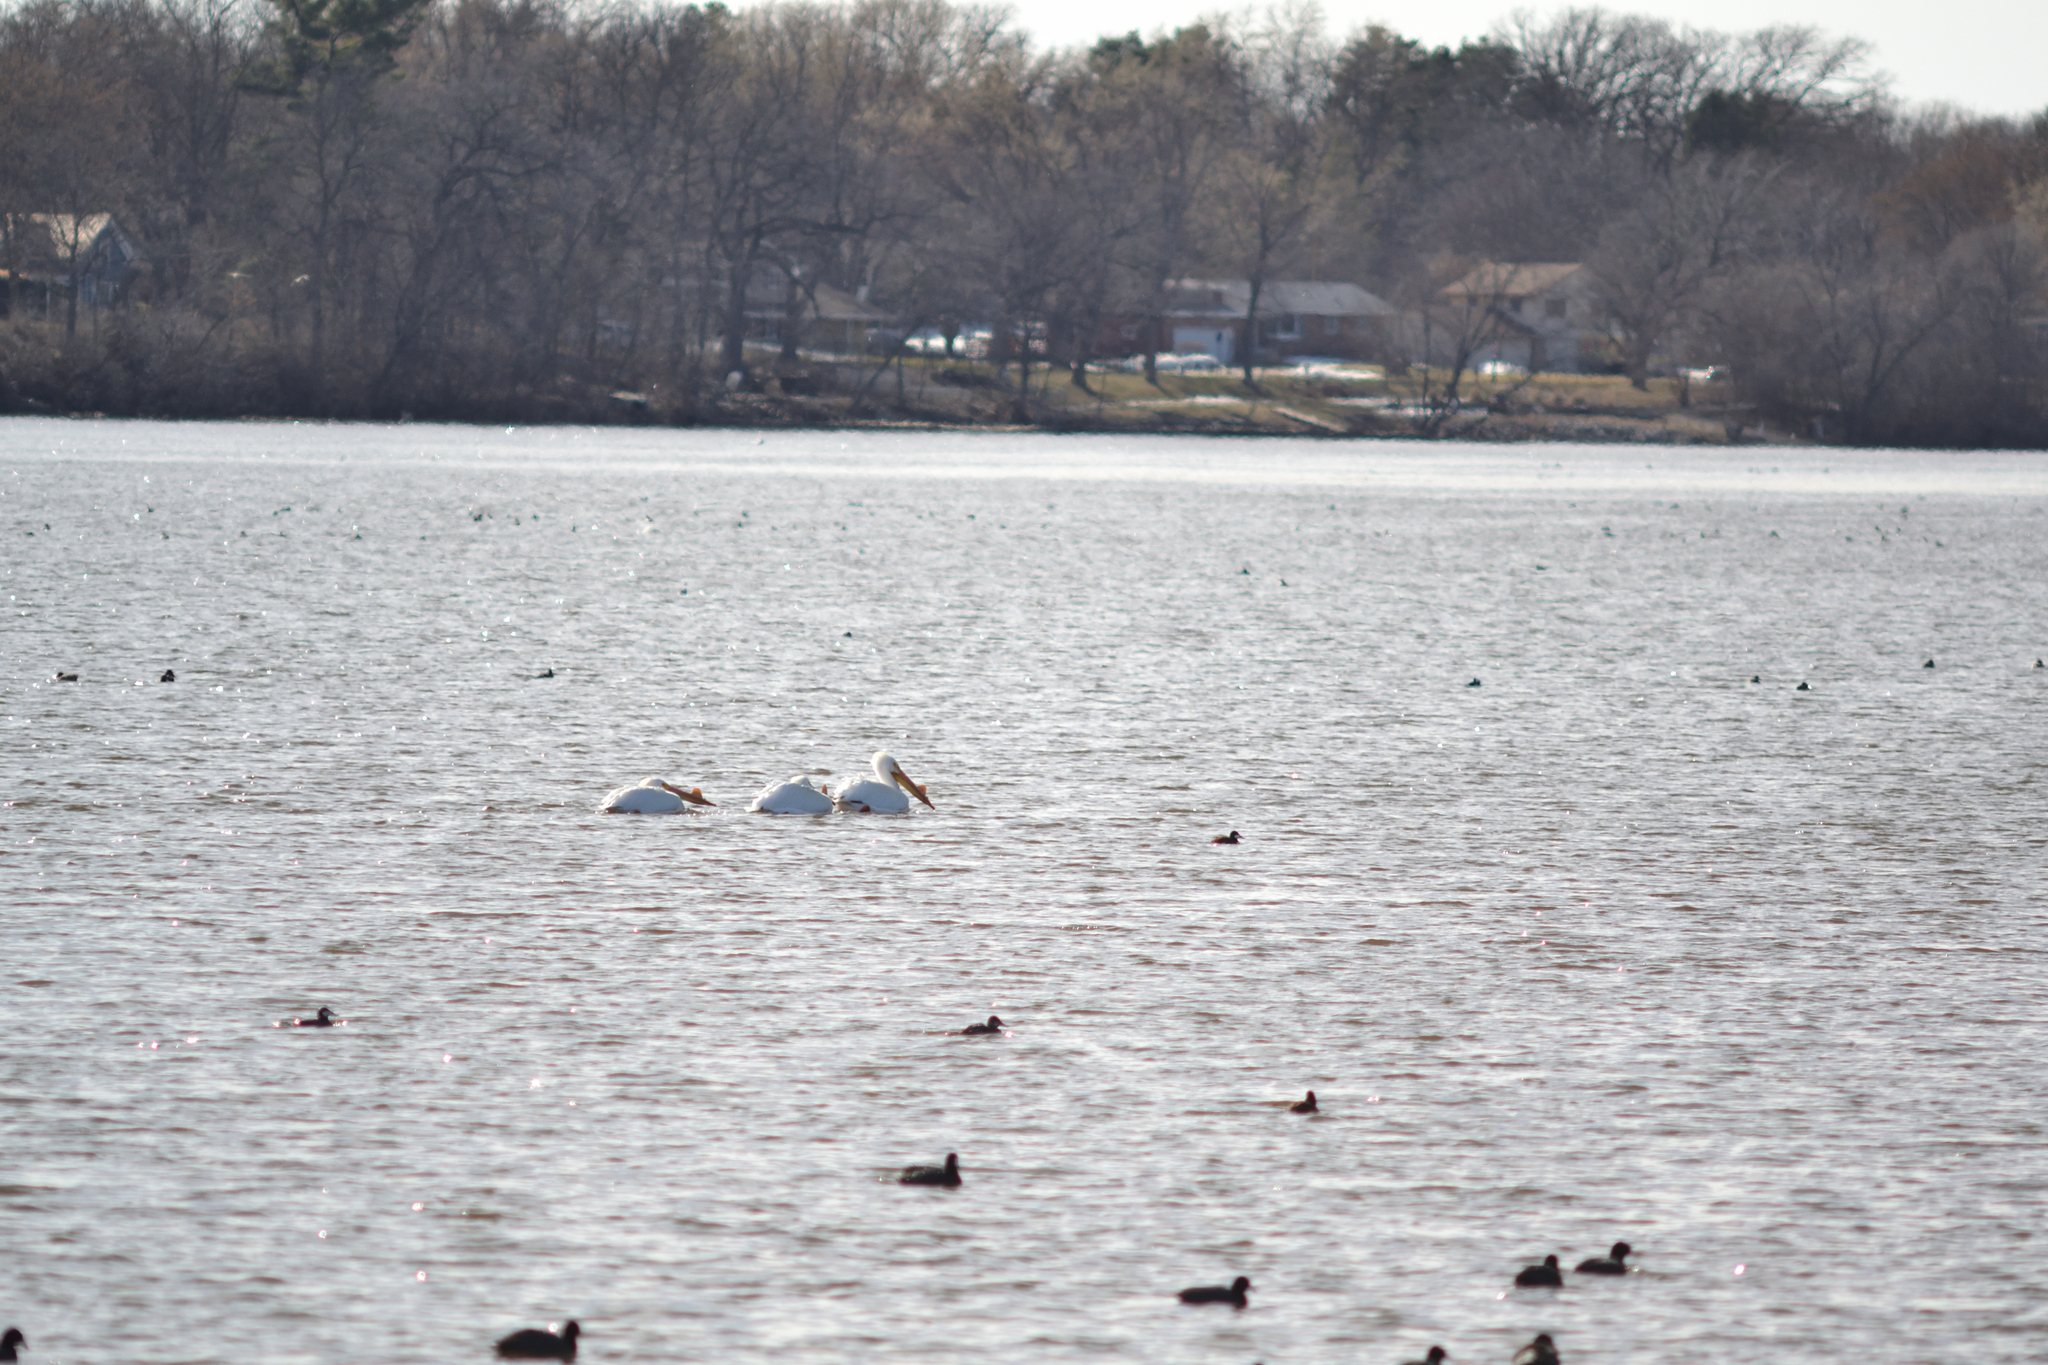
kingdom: Animalia
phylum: Chordata
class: Aves
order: Pelecaniformes
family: Pelecanidae
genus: Pelecanus
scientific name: Pelecanus erythrorhynchos
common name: American white pelican
